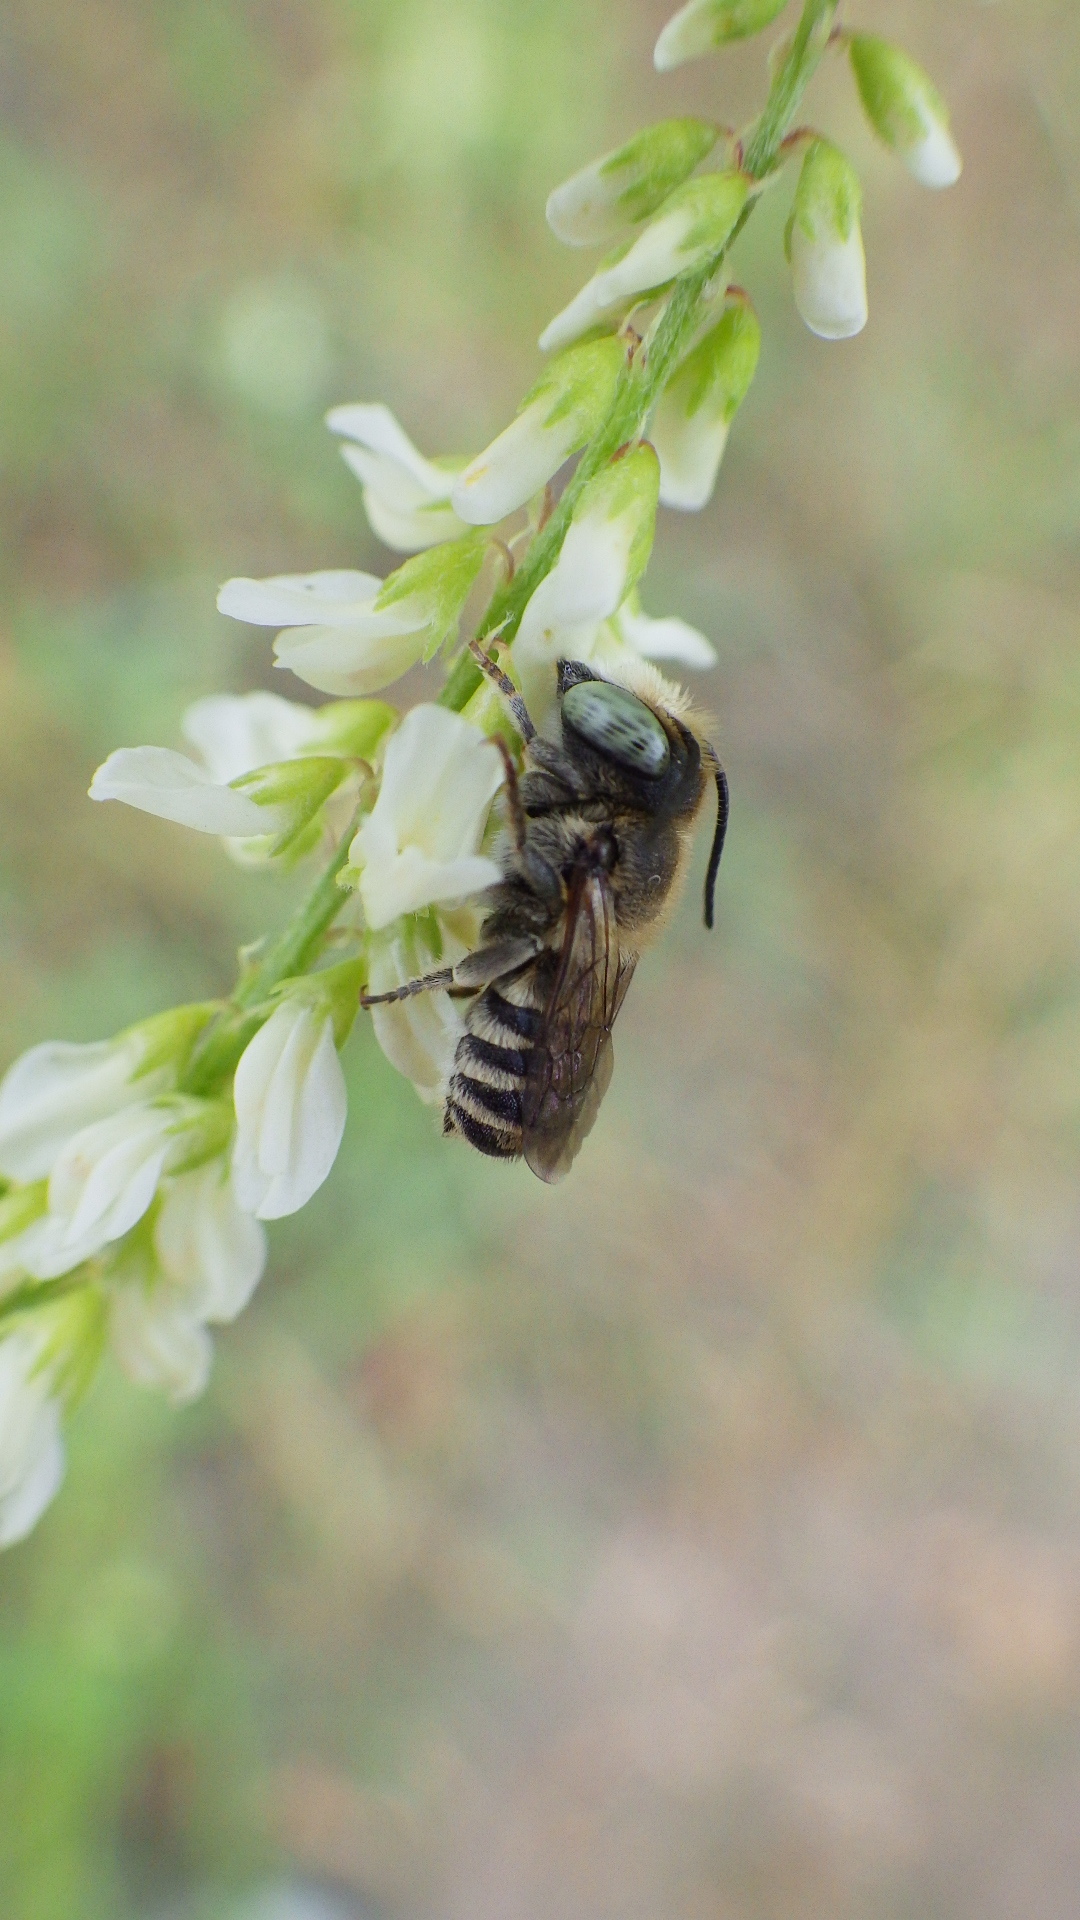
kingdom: Animalia
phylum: Arthropoda
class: Insecta
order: Hymenoptera
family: Megachilidae
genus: Megachile
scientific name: Megachile rotundata
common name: Alfalfa leafcutting bee
